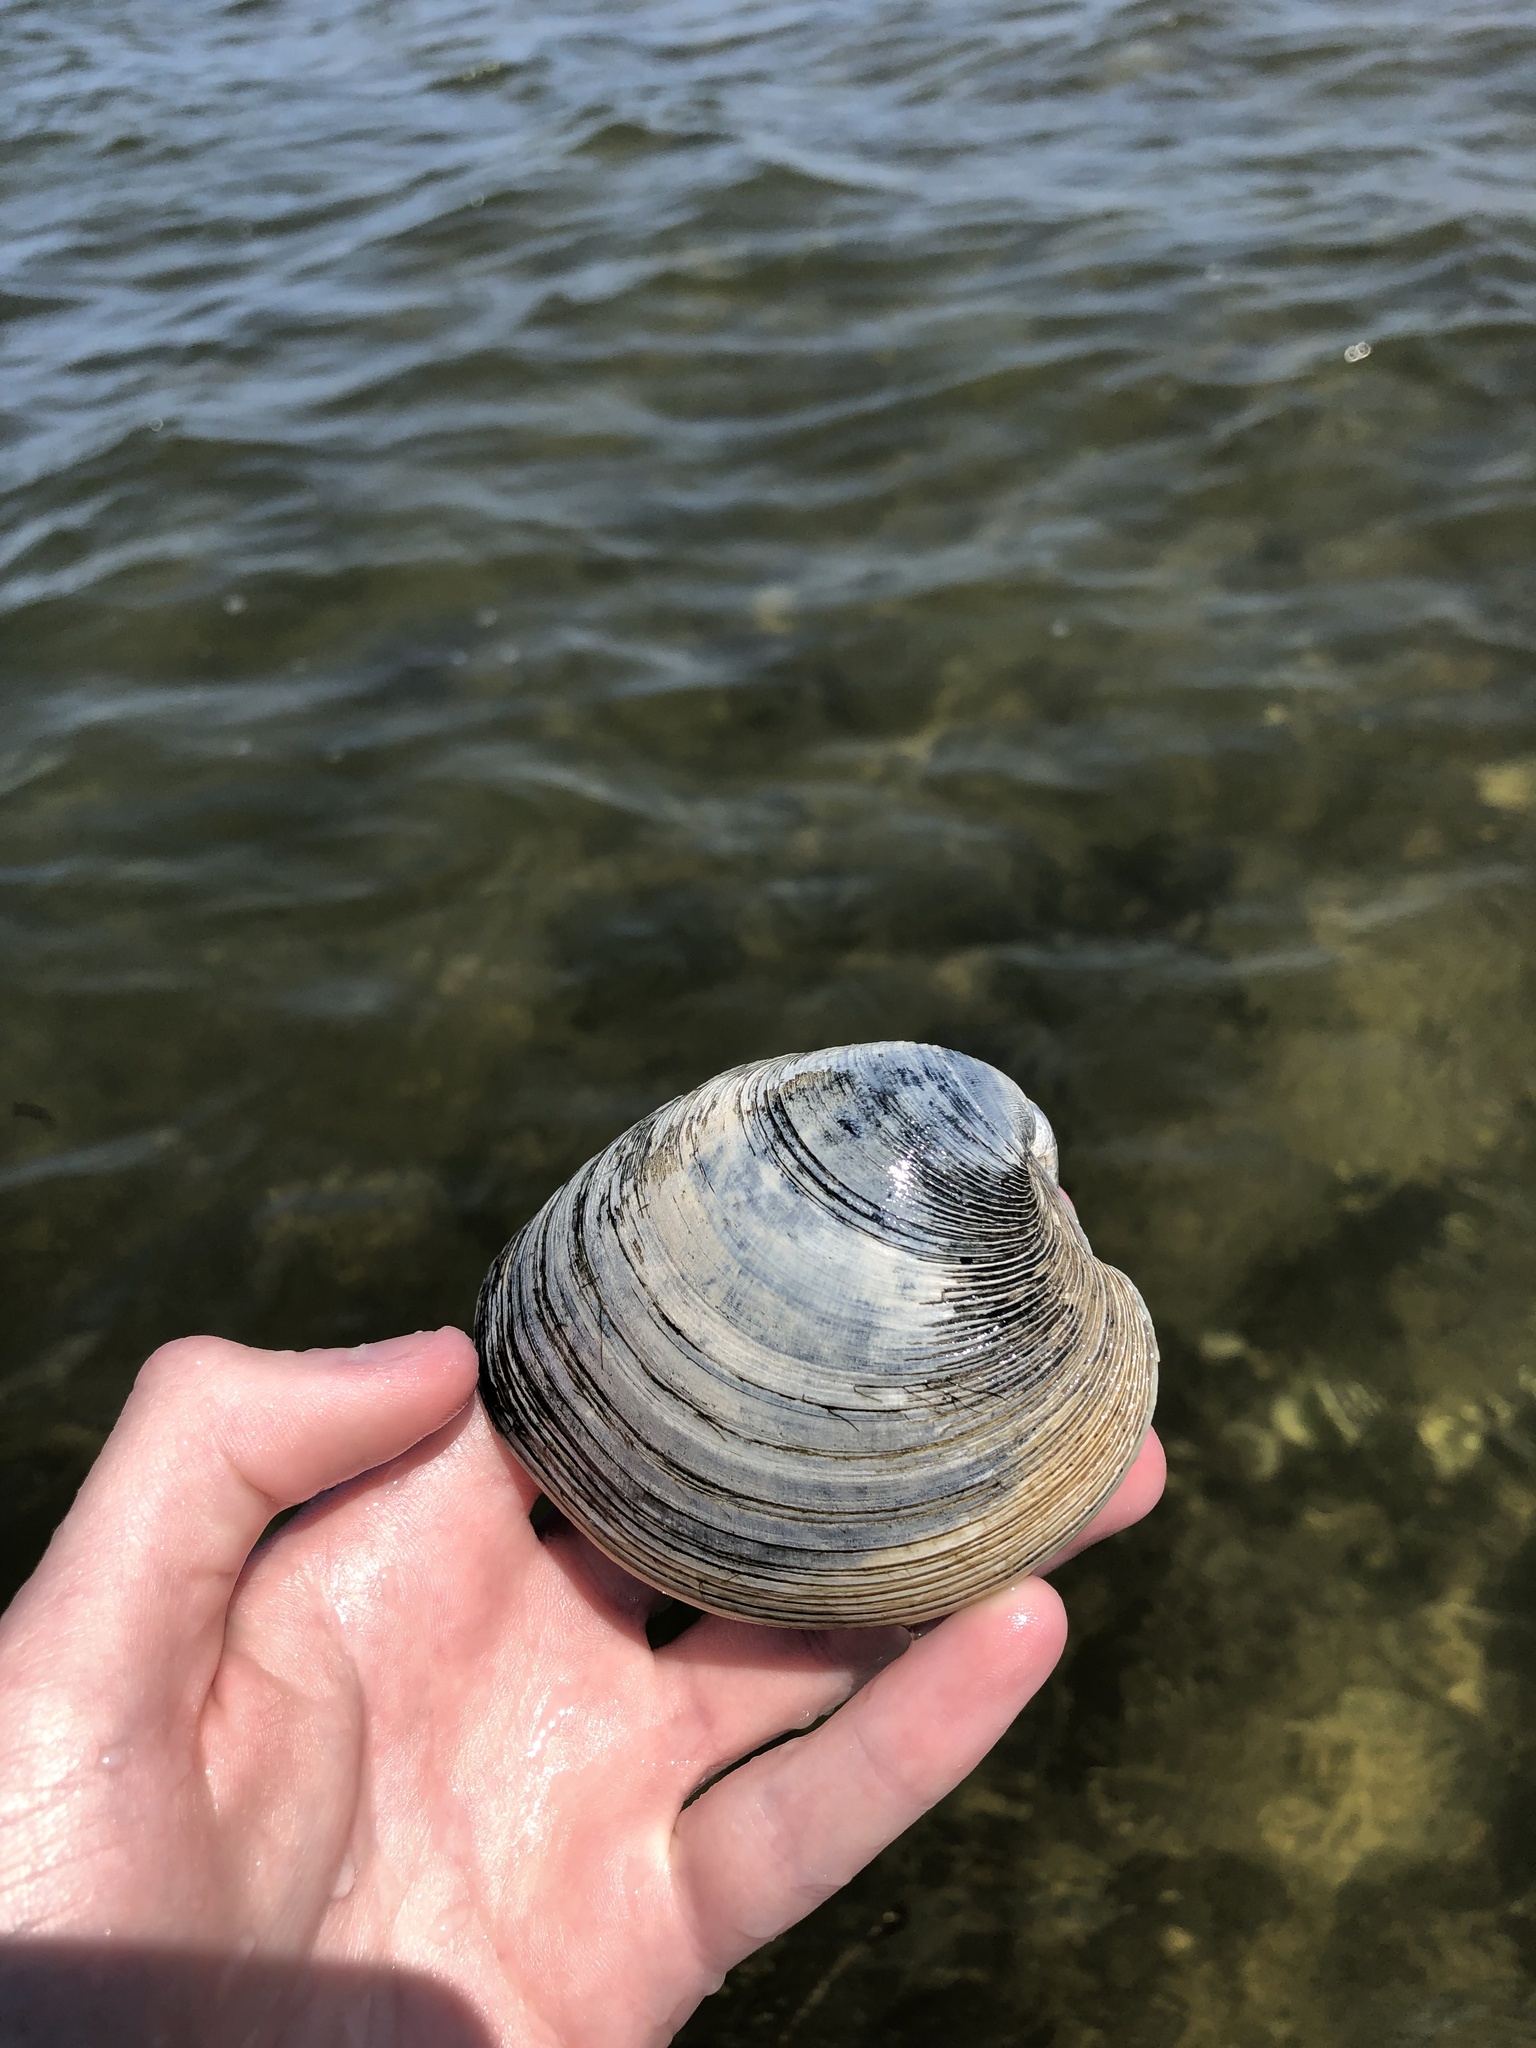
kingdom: Animalia
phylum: Mollusca
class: Bivalvia
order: Venerida
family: Veneridae
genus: Mercenaria
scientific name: Mercenaria mercenaria
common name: American hard-shelled clam
